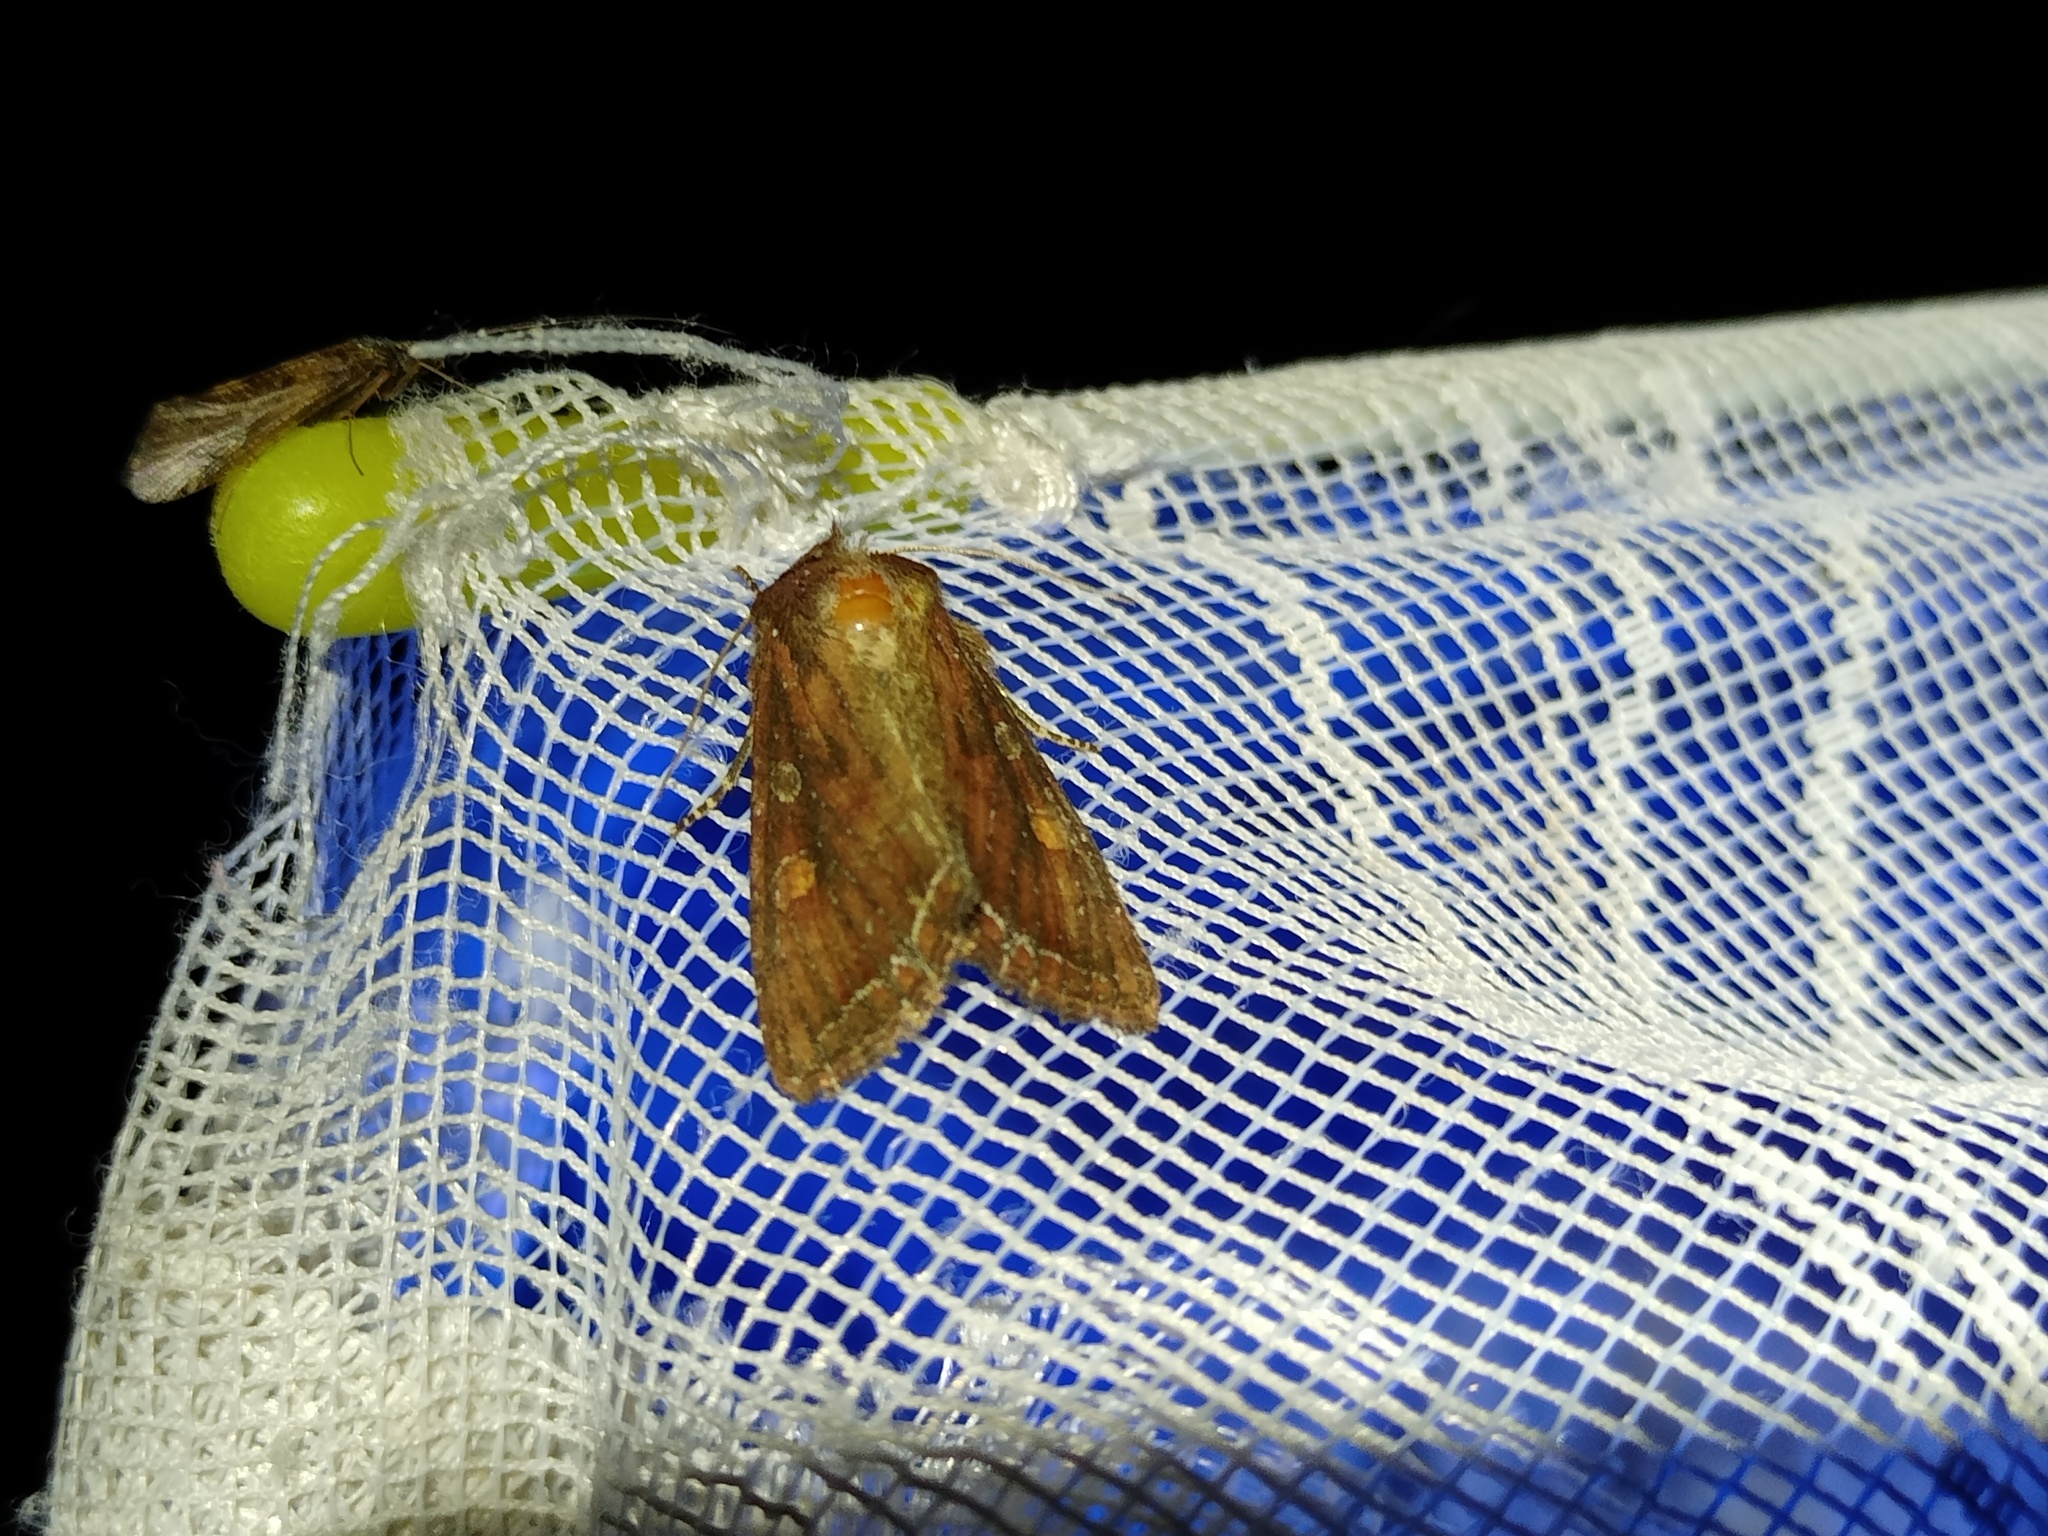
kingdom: Animalia
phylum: Arthropoda
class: Insecta
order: Lepidoptera
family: Noctuidae
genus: Lacanobia
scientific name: Lacanobia oleracea
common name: Bright-line brown-eye
